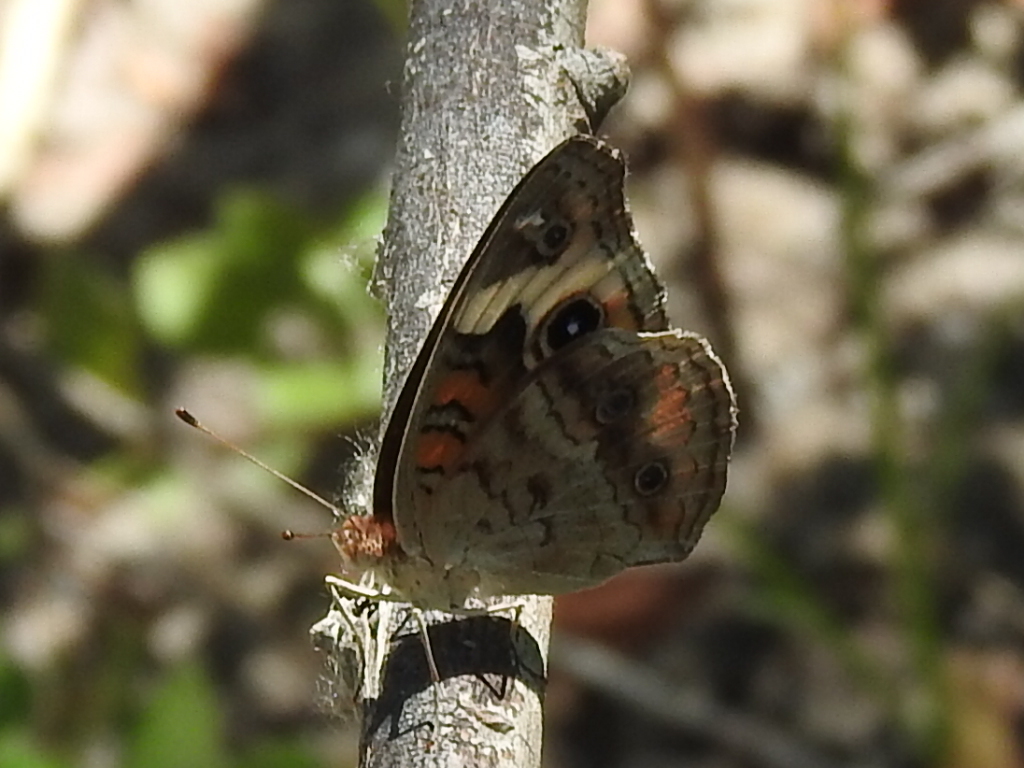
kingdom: Animalia
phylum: Arthropoda
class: Insecta
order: Lepidoptera
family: Nymphalidae
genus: Junonia
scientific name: Junonia coenia
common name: Common buckeye
